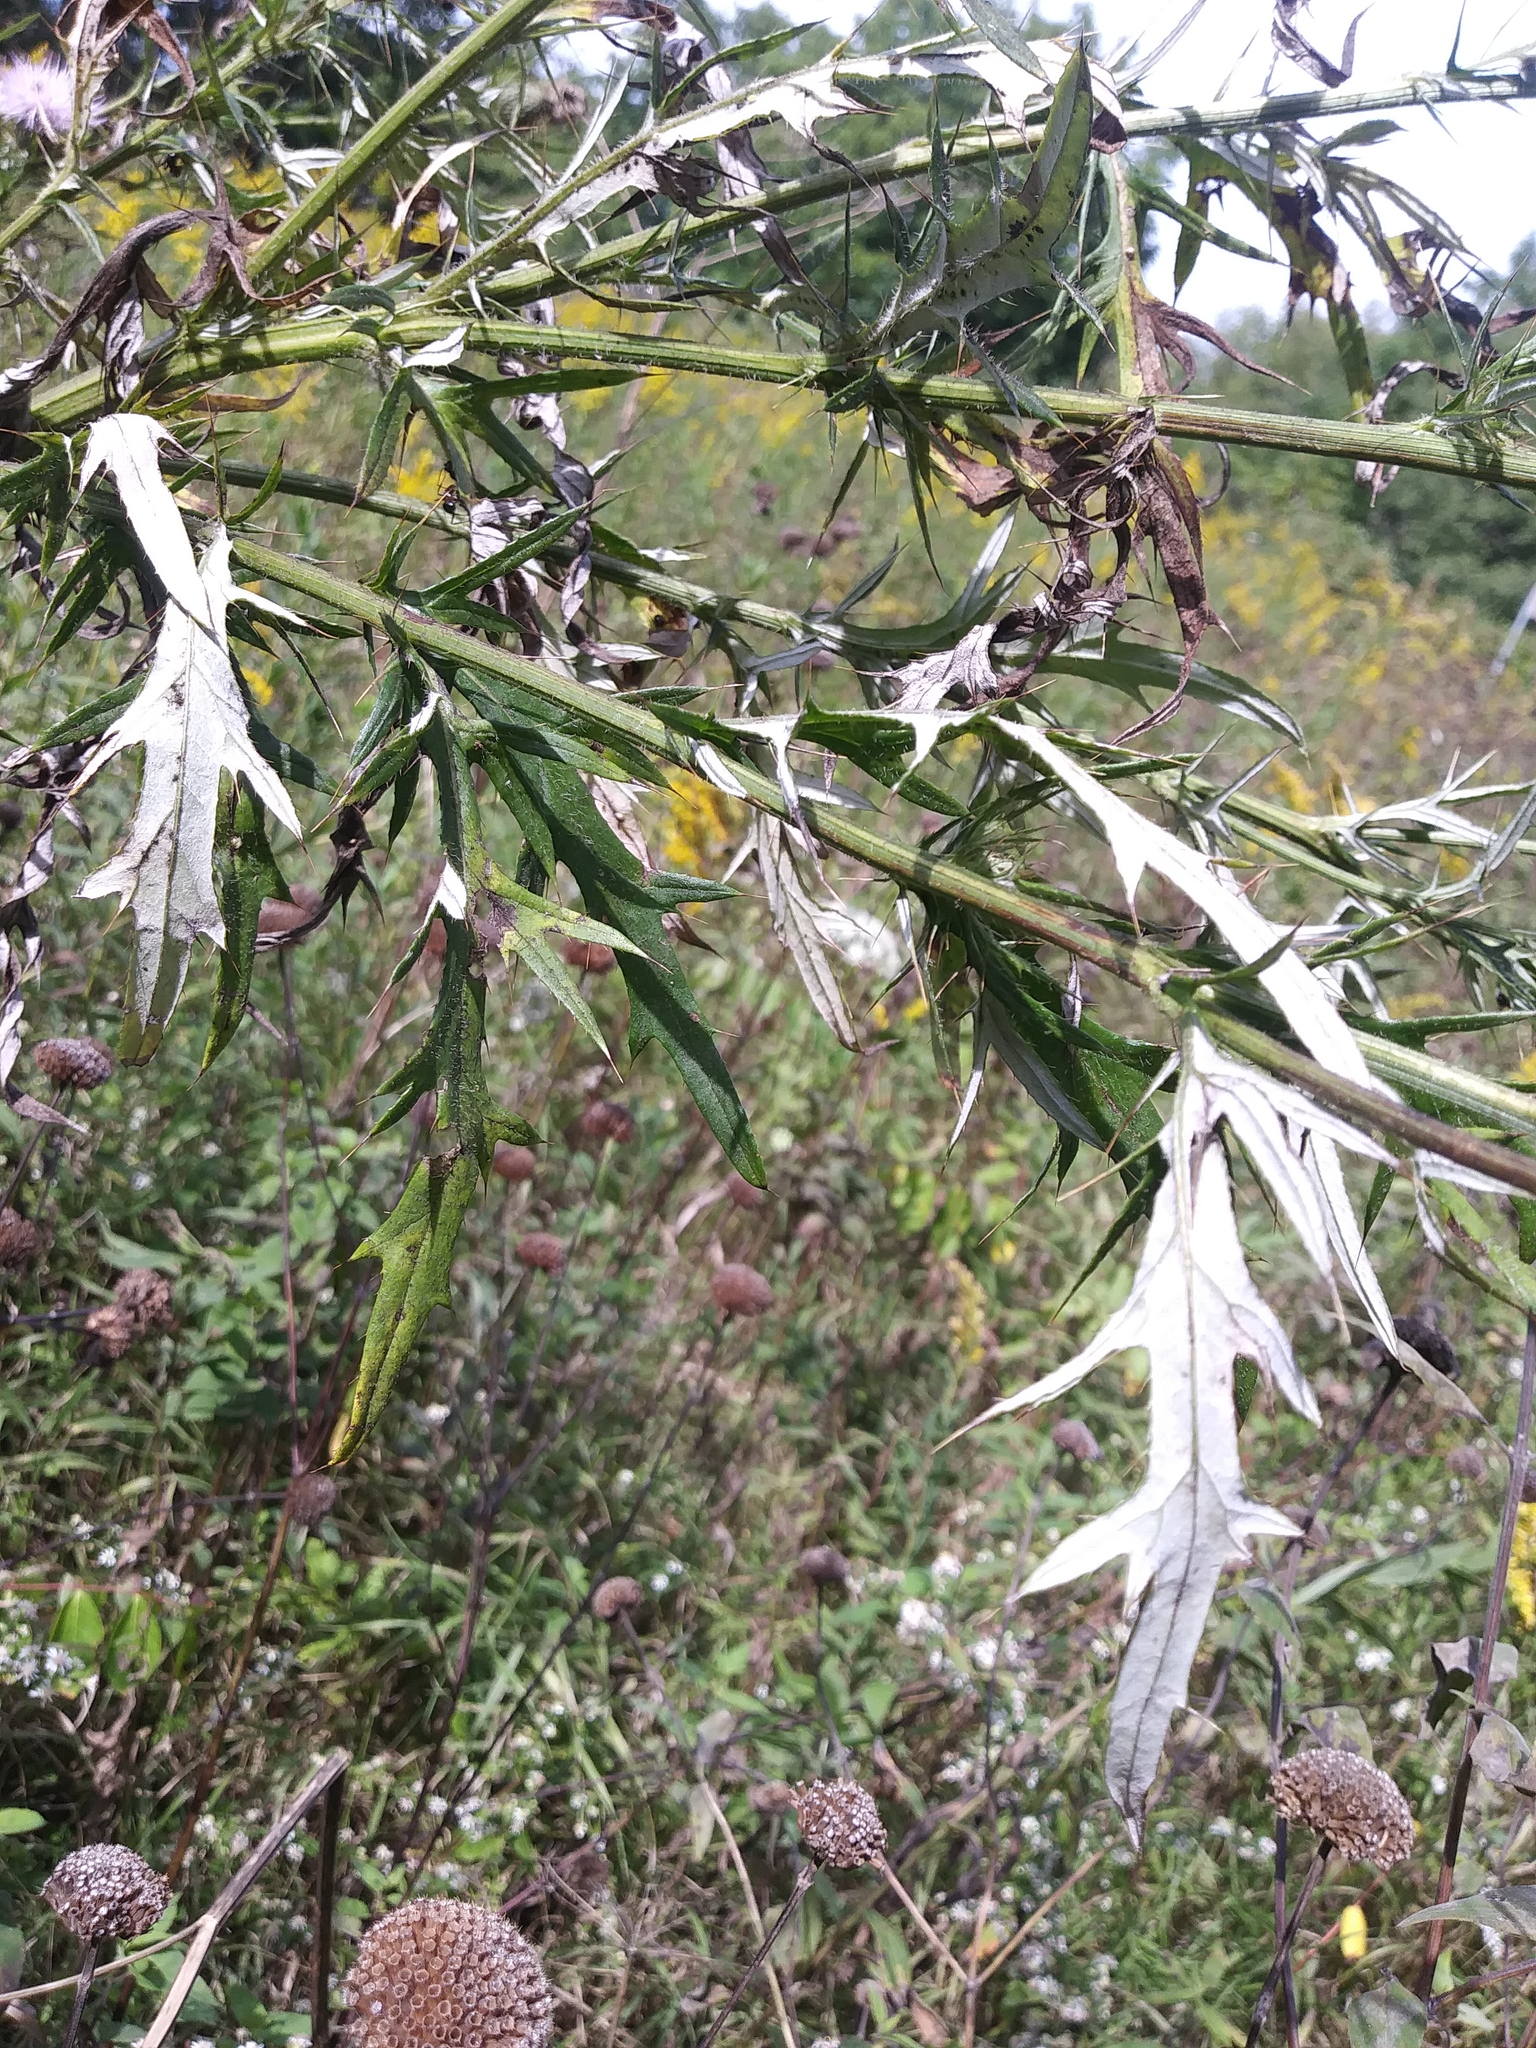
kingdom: Plantae
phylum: Tracheophyta
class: Magnoliopsida
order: Asterales
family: Asteraceae
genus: Cirsium
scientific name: Cirsium discolor
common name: Field thistle
